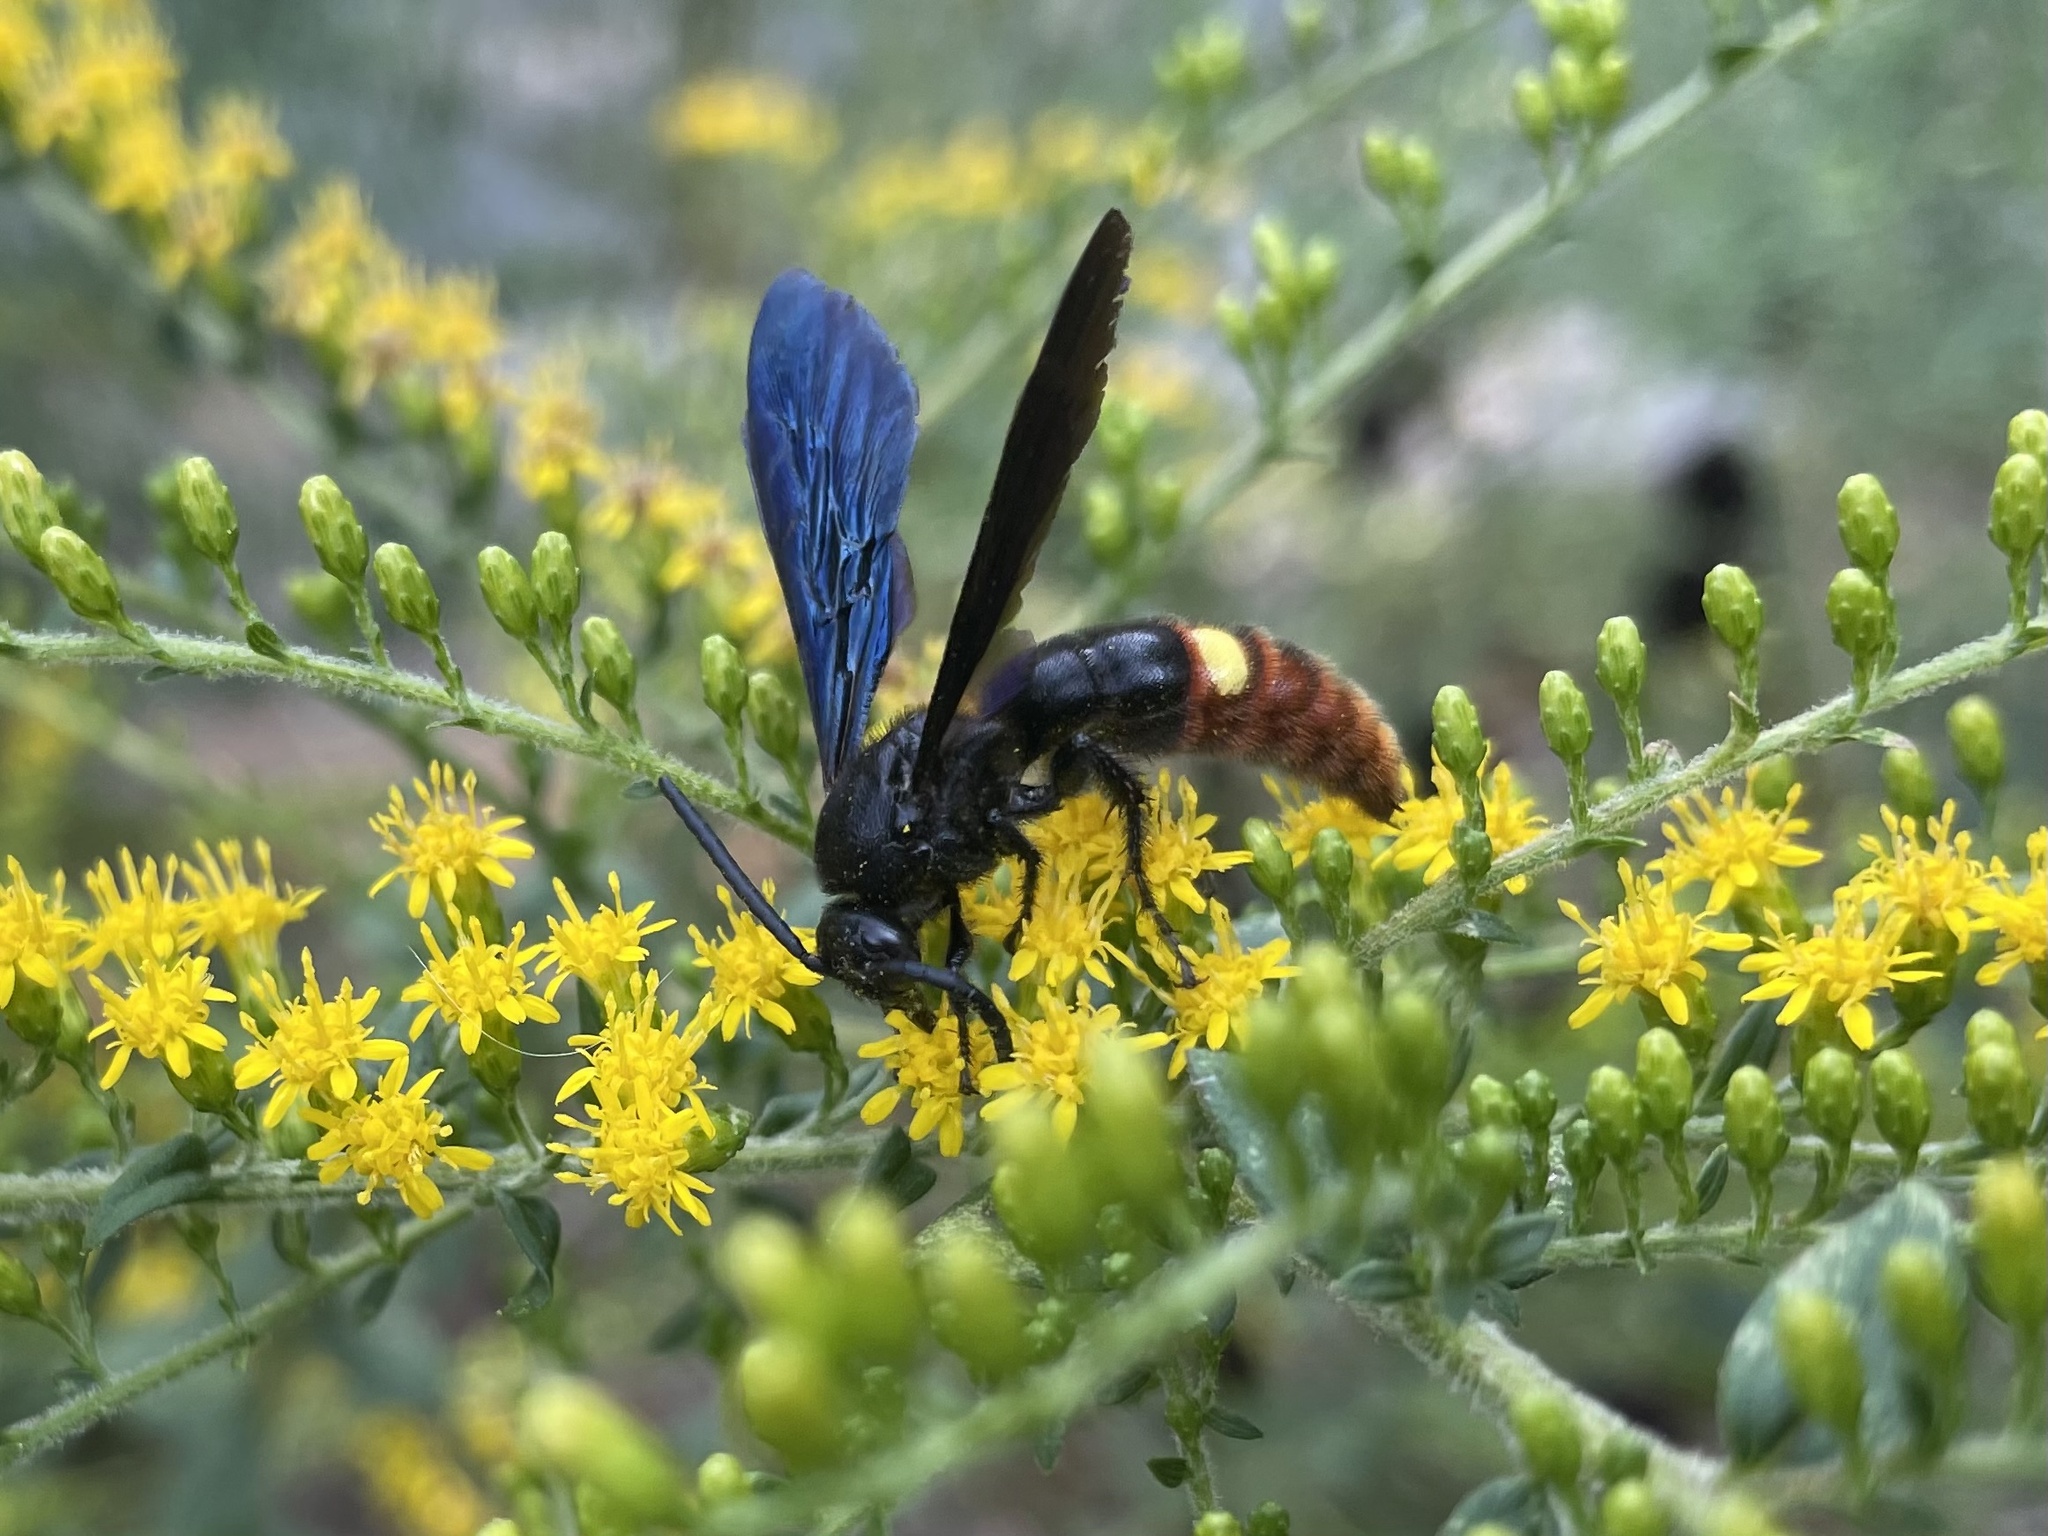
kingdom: Animalia
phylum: Arthropoda
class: Insecta
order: Hymenoptera
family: Scoliidae
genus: Scolia
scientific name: Scolia dubia
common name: Blue-winged scoliid wasp
